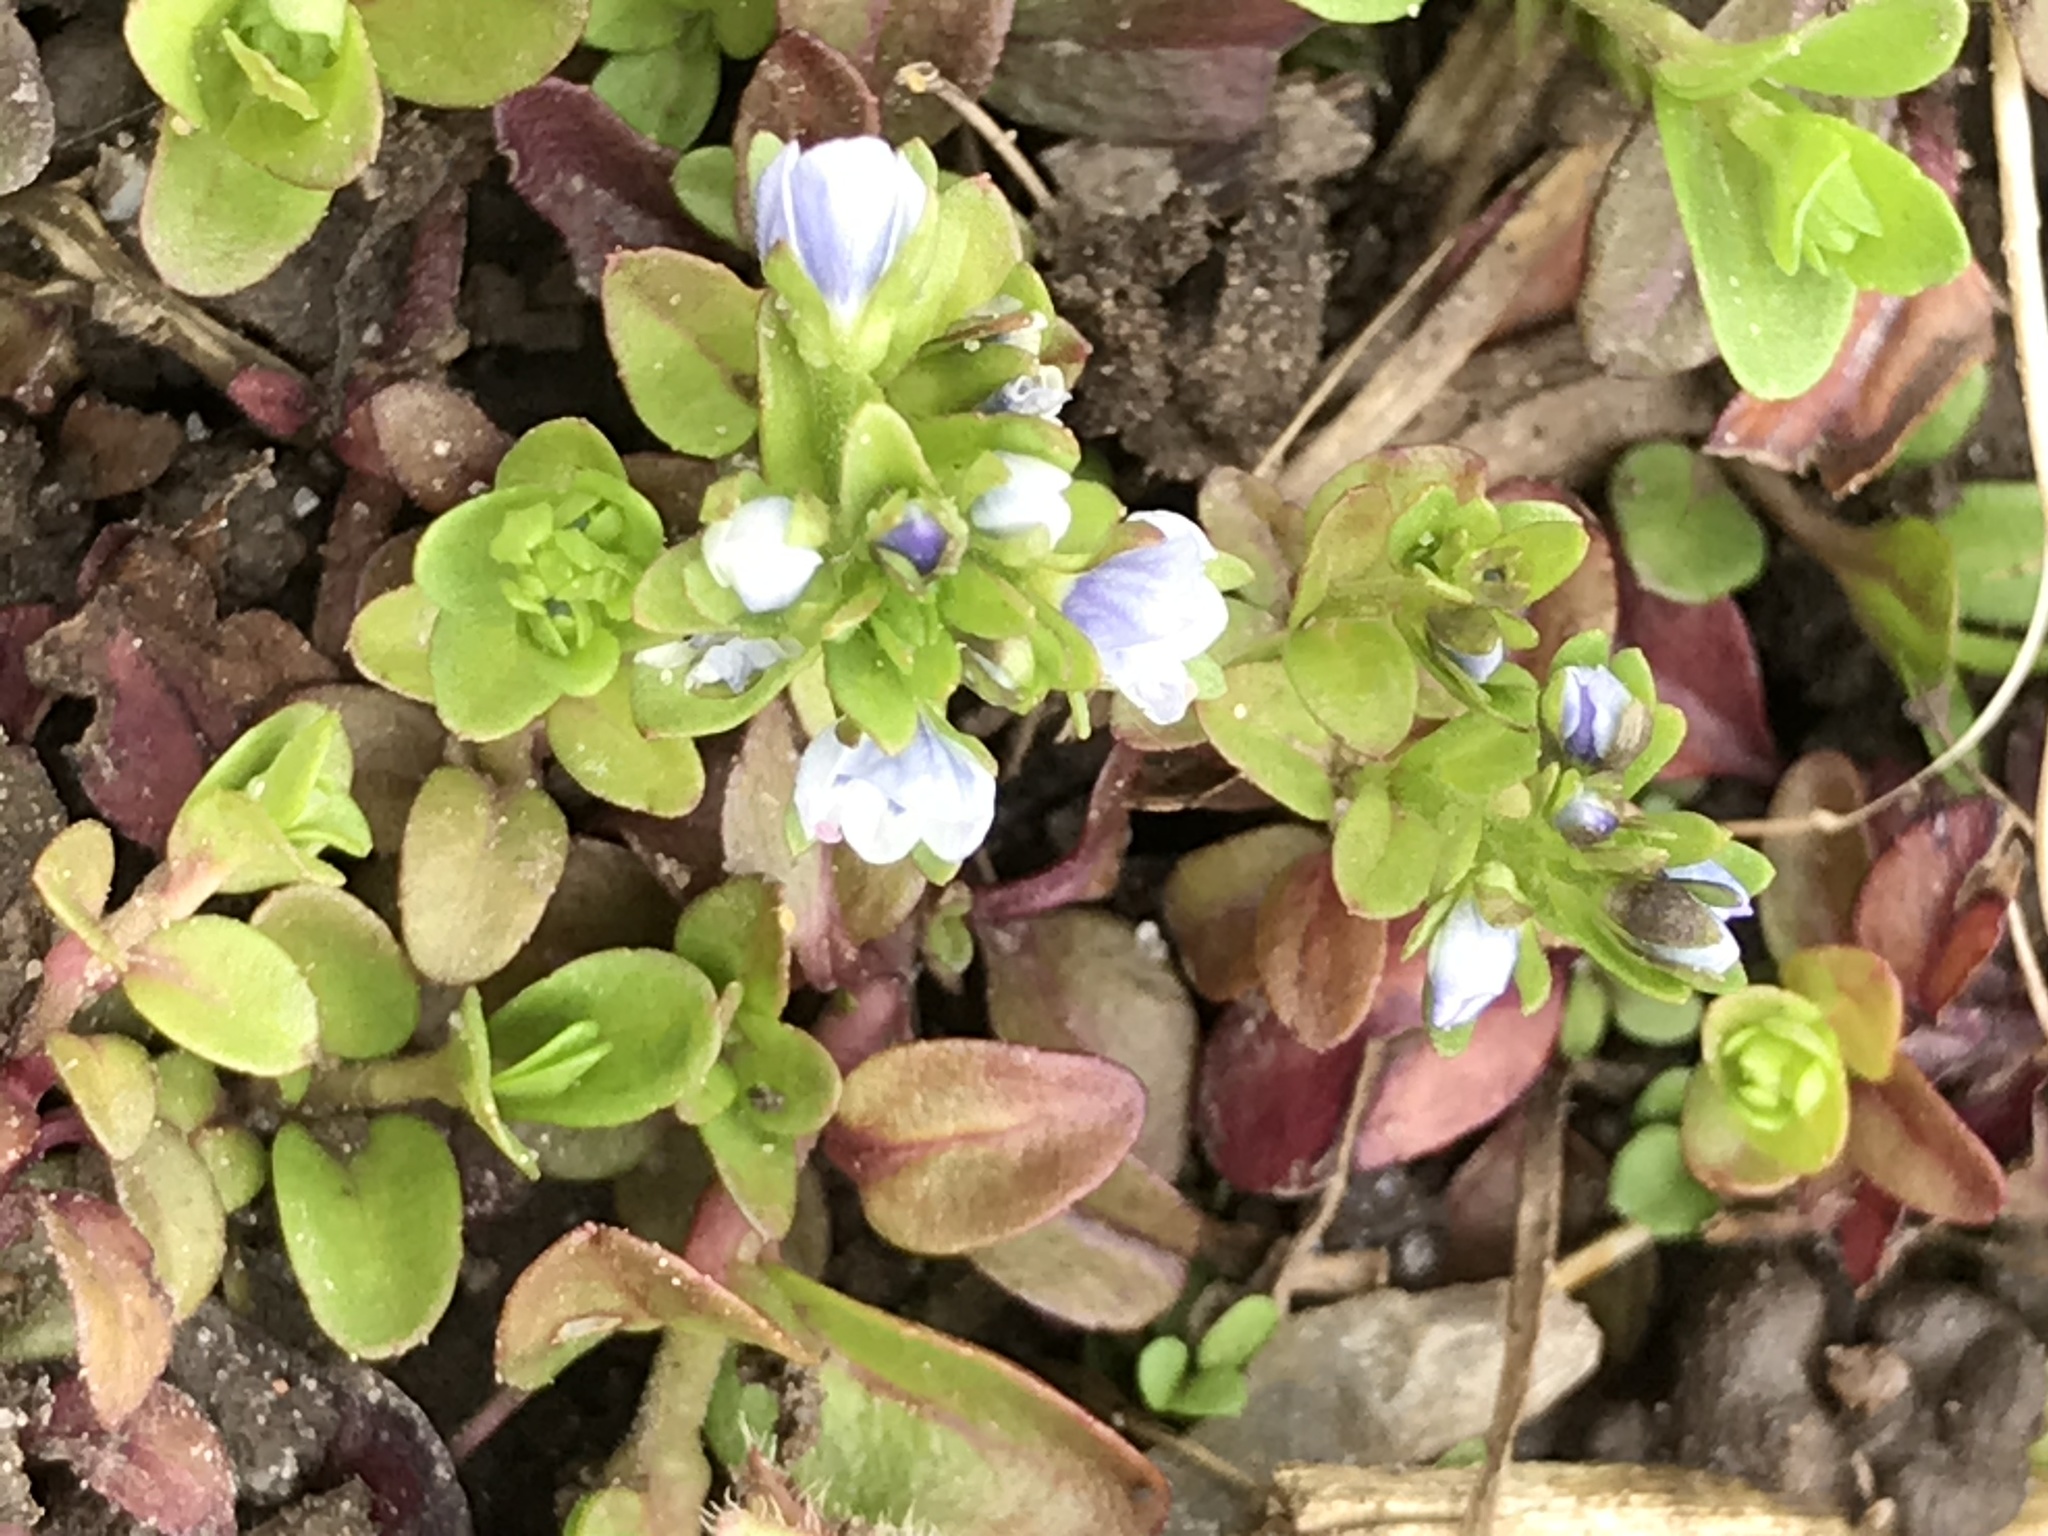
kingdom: Plantae
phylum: Tracheophyta
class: Magnoliopsida
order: Lamiales
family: Plantaginaceae
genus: Veronica
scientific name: Veronica serpyllifolia
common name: Thyme-leaved speedwell
